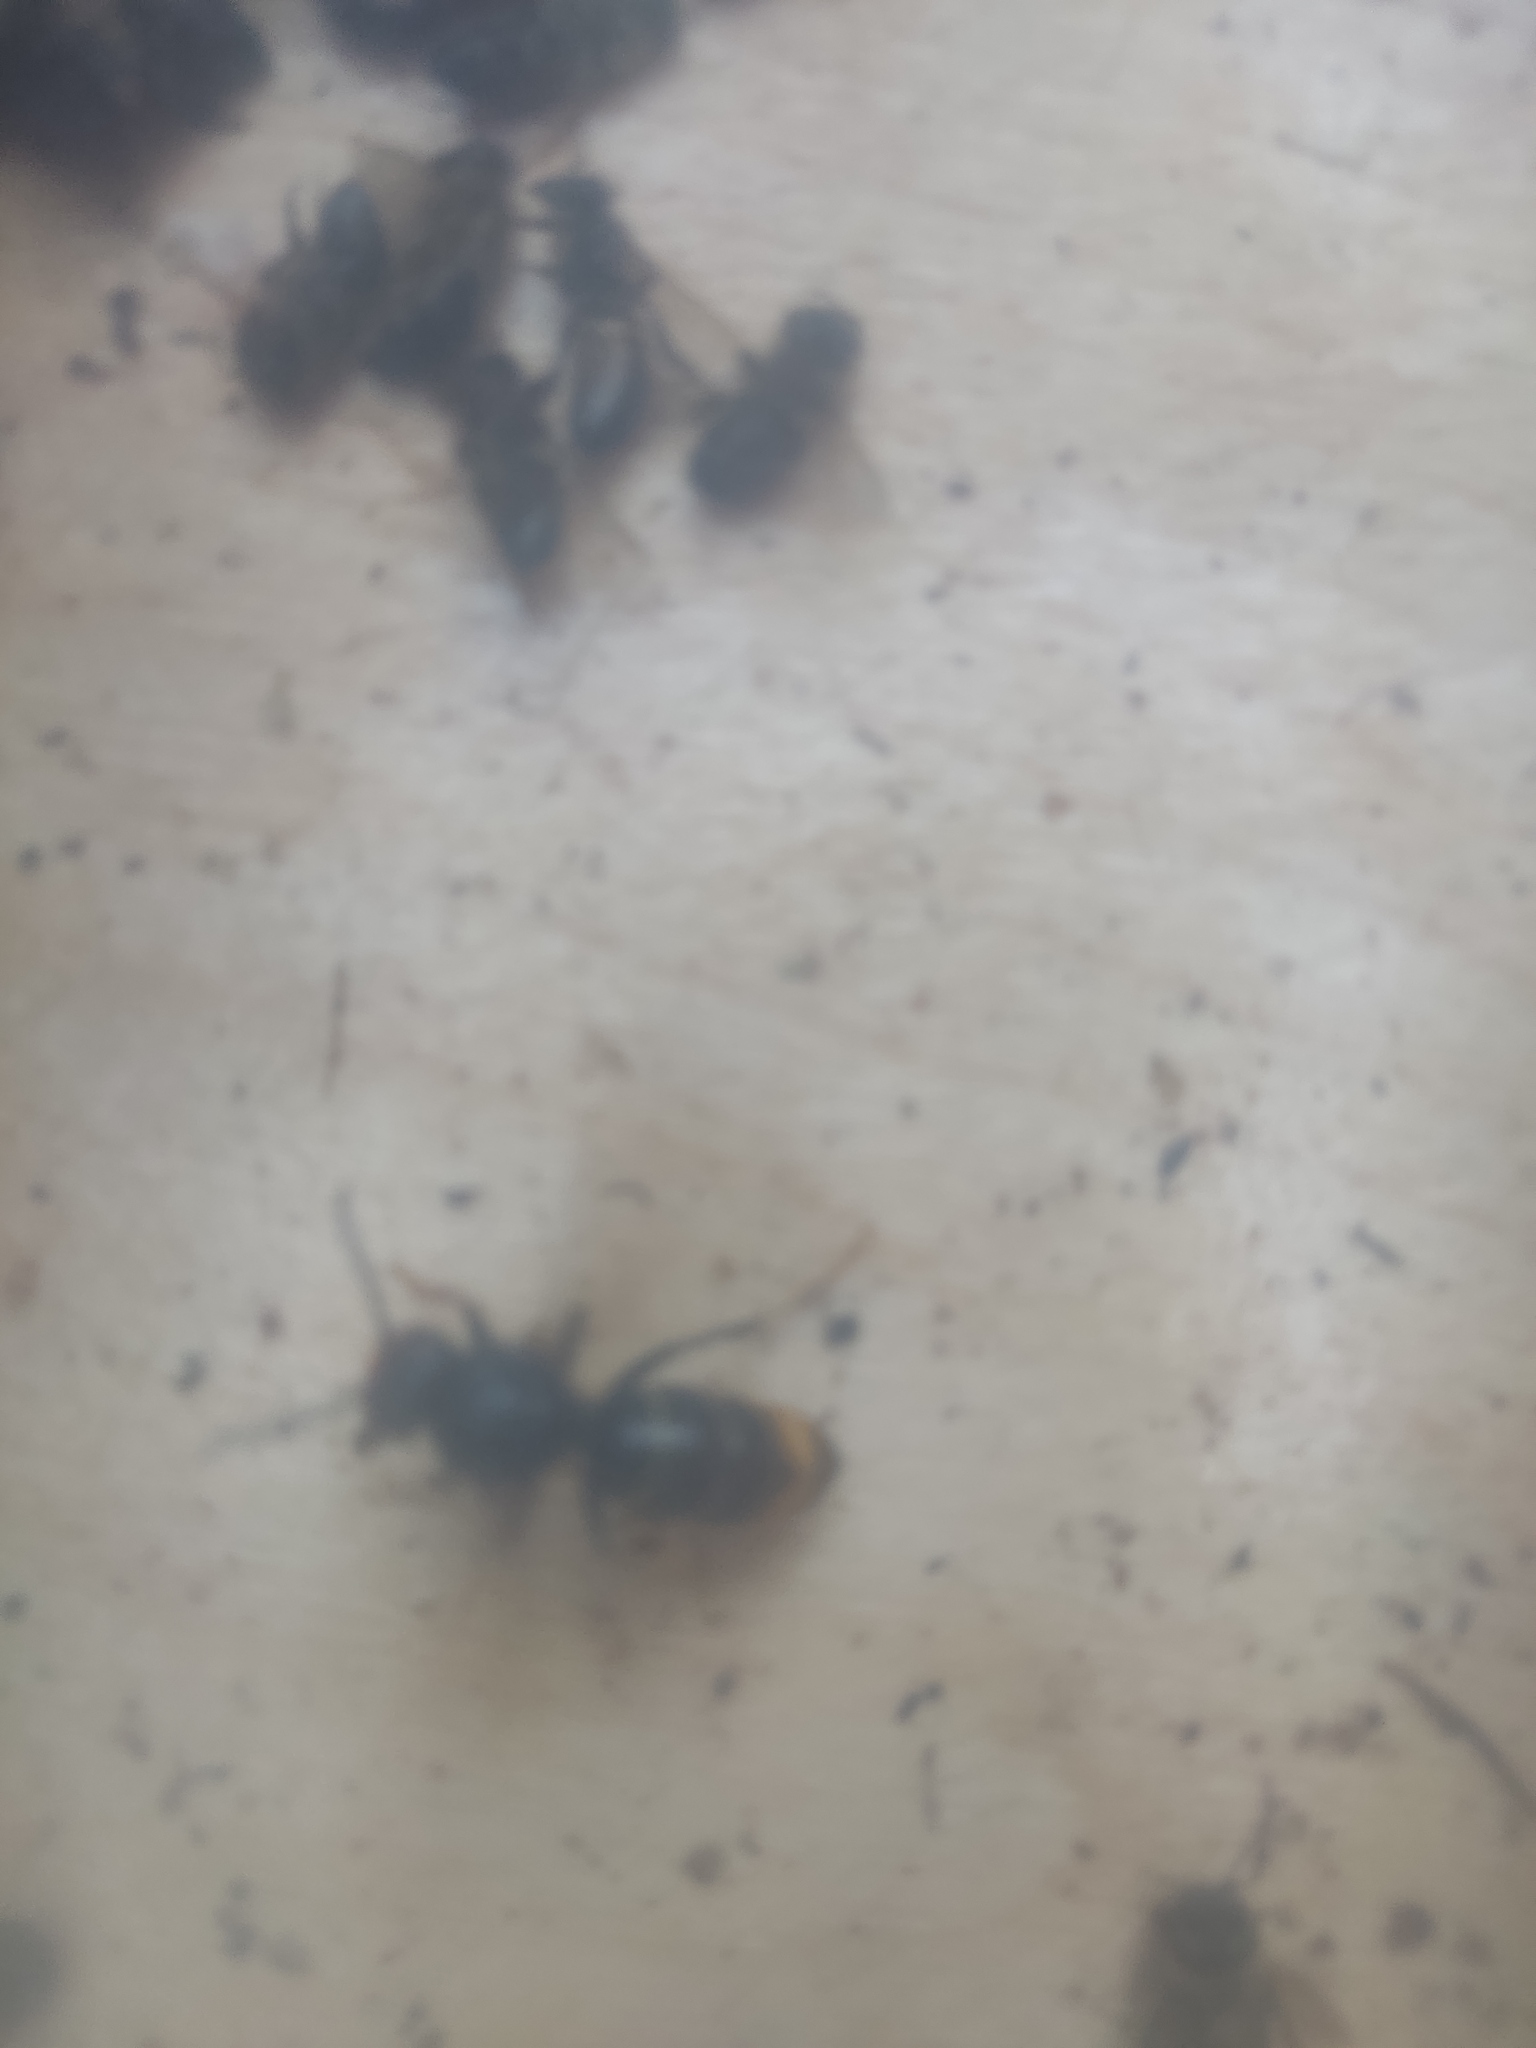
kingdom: Animalia
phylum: Arthropoda
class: Insecta
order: Hymenoptera
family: Vespidae
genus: Vespa
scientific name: Vespa velutina
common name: Asian hornet
